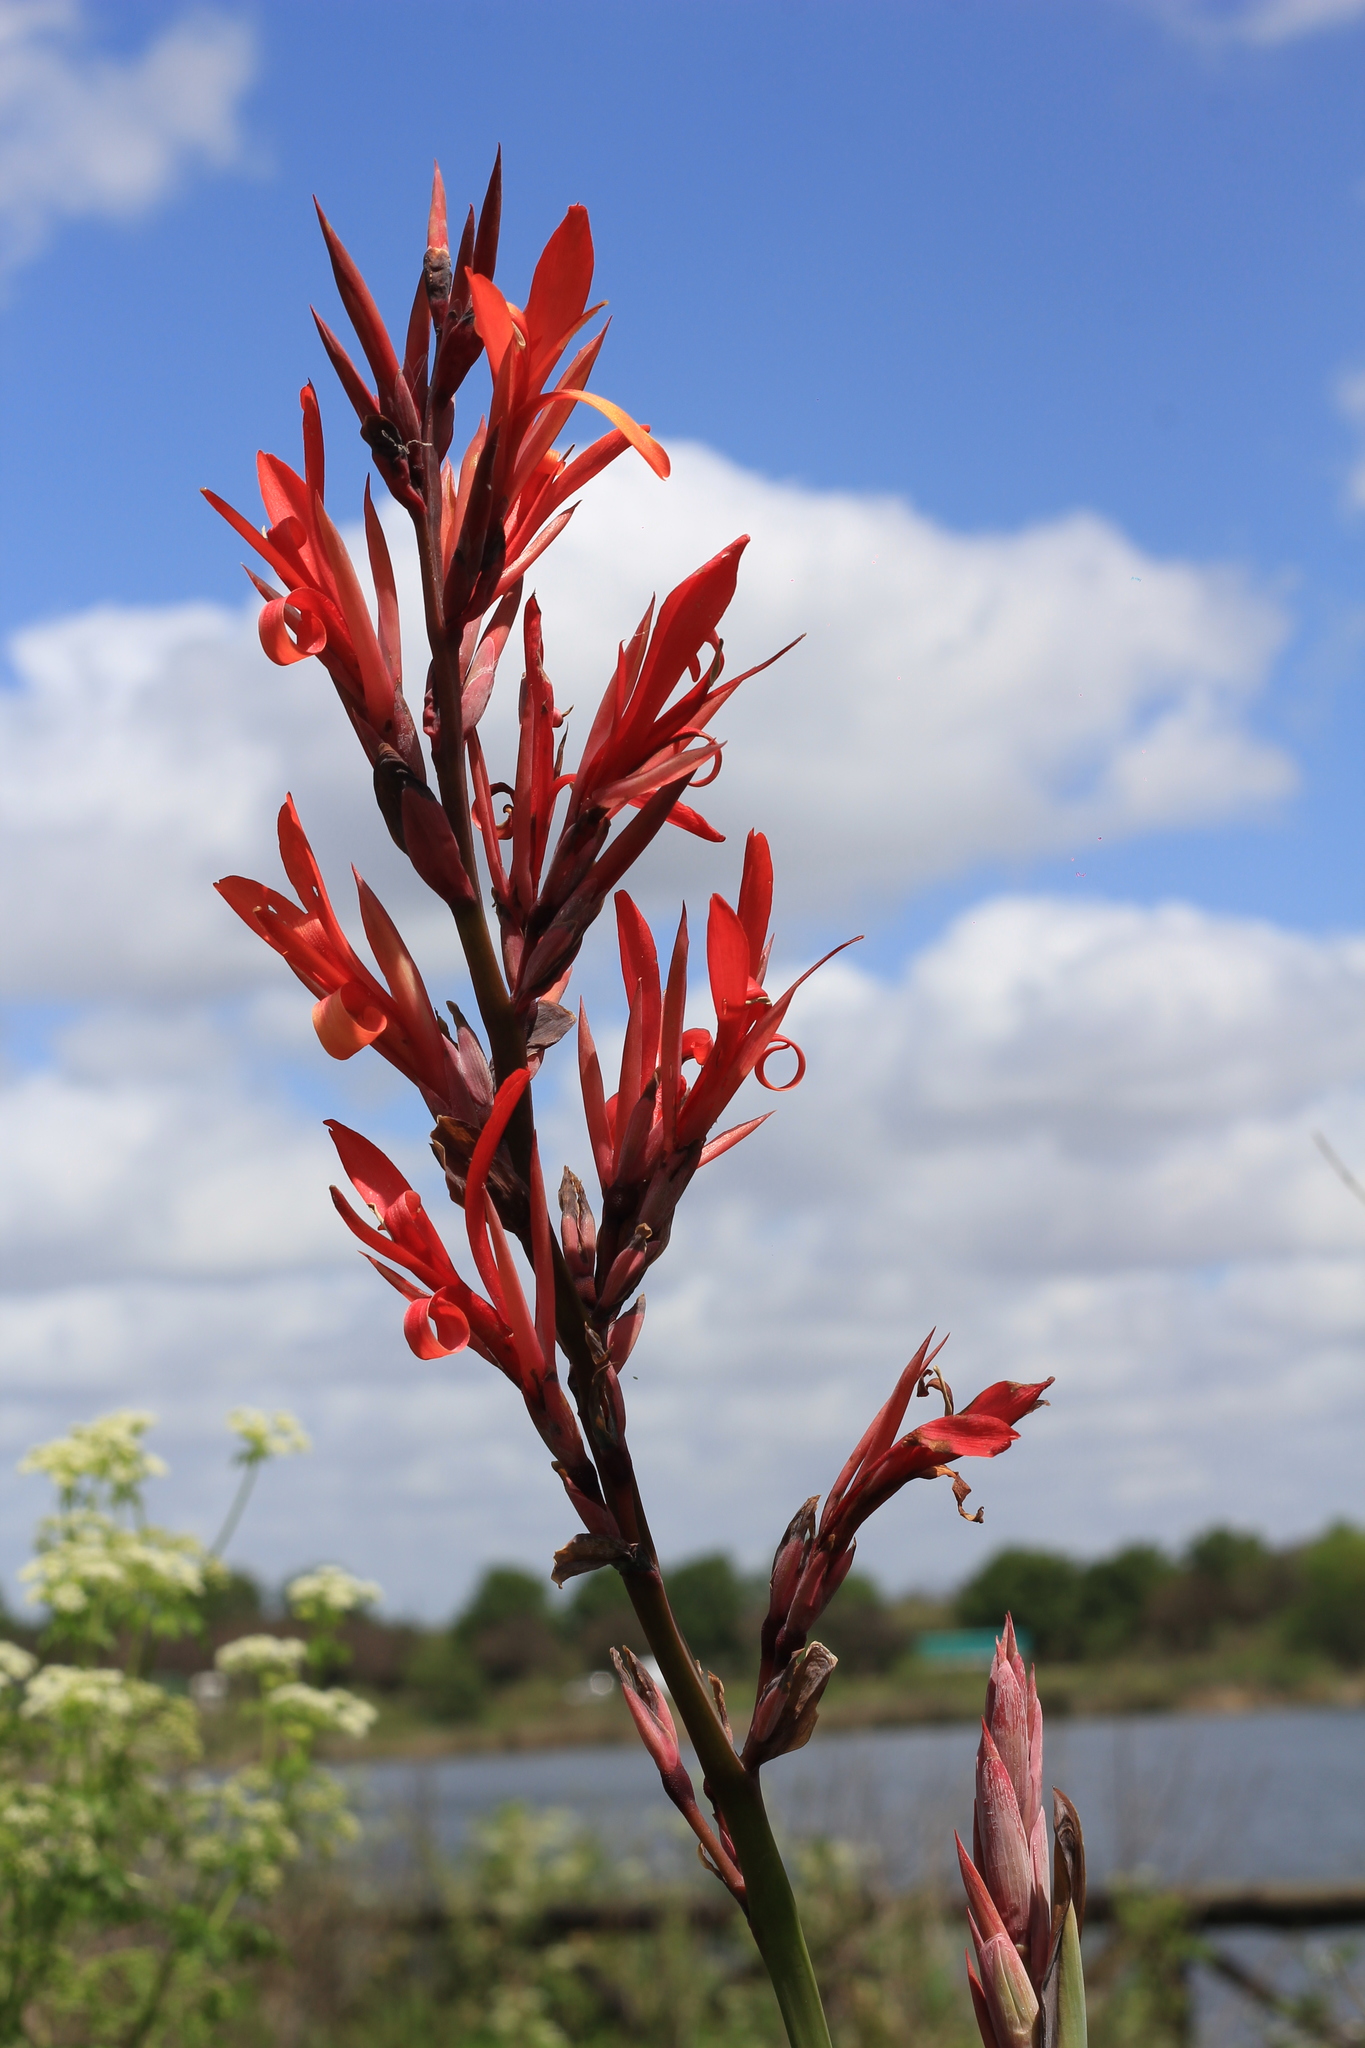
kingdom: Plantae
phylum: Tracheophyta
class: Liliopsida
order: Zingiberales
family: Cannaceae
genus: Canna
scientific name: Canna indica
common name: Indian shot
